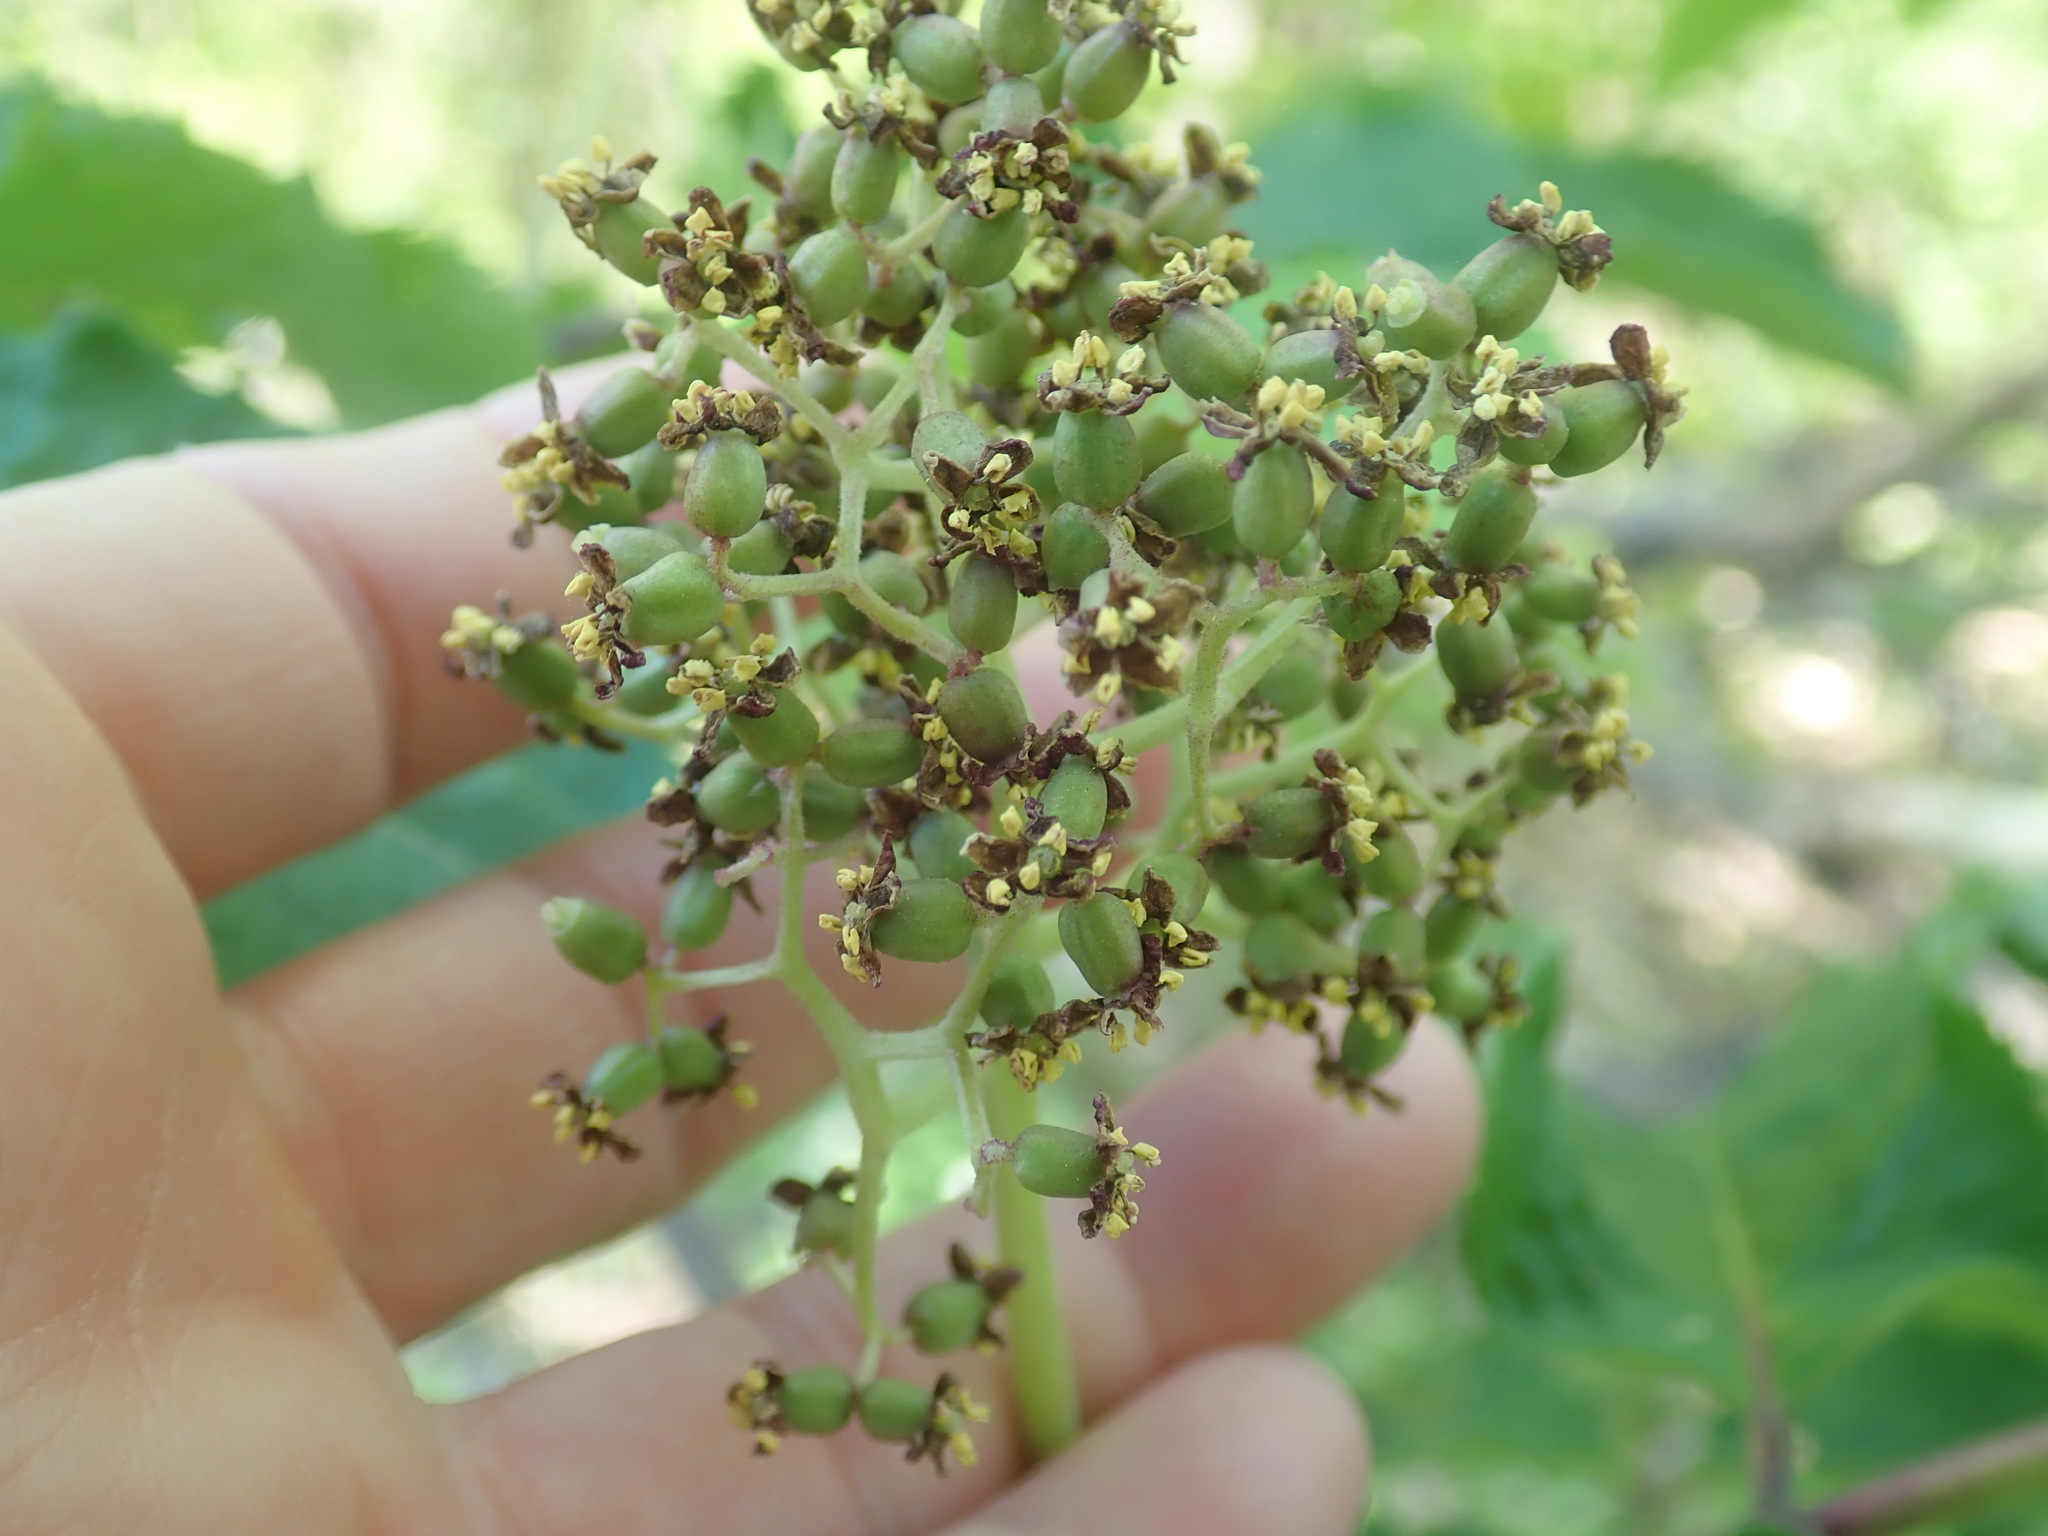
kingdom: Plantae
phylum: Tracheophyta
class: Magnoliopsida
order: Dipsacales
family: Viburnaceae
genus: Sambucus
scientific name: Sambucus racemosa
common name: Red-berried elder
